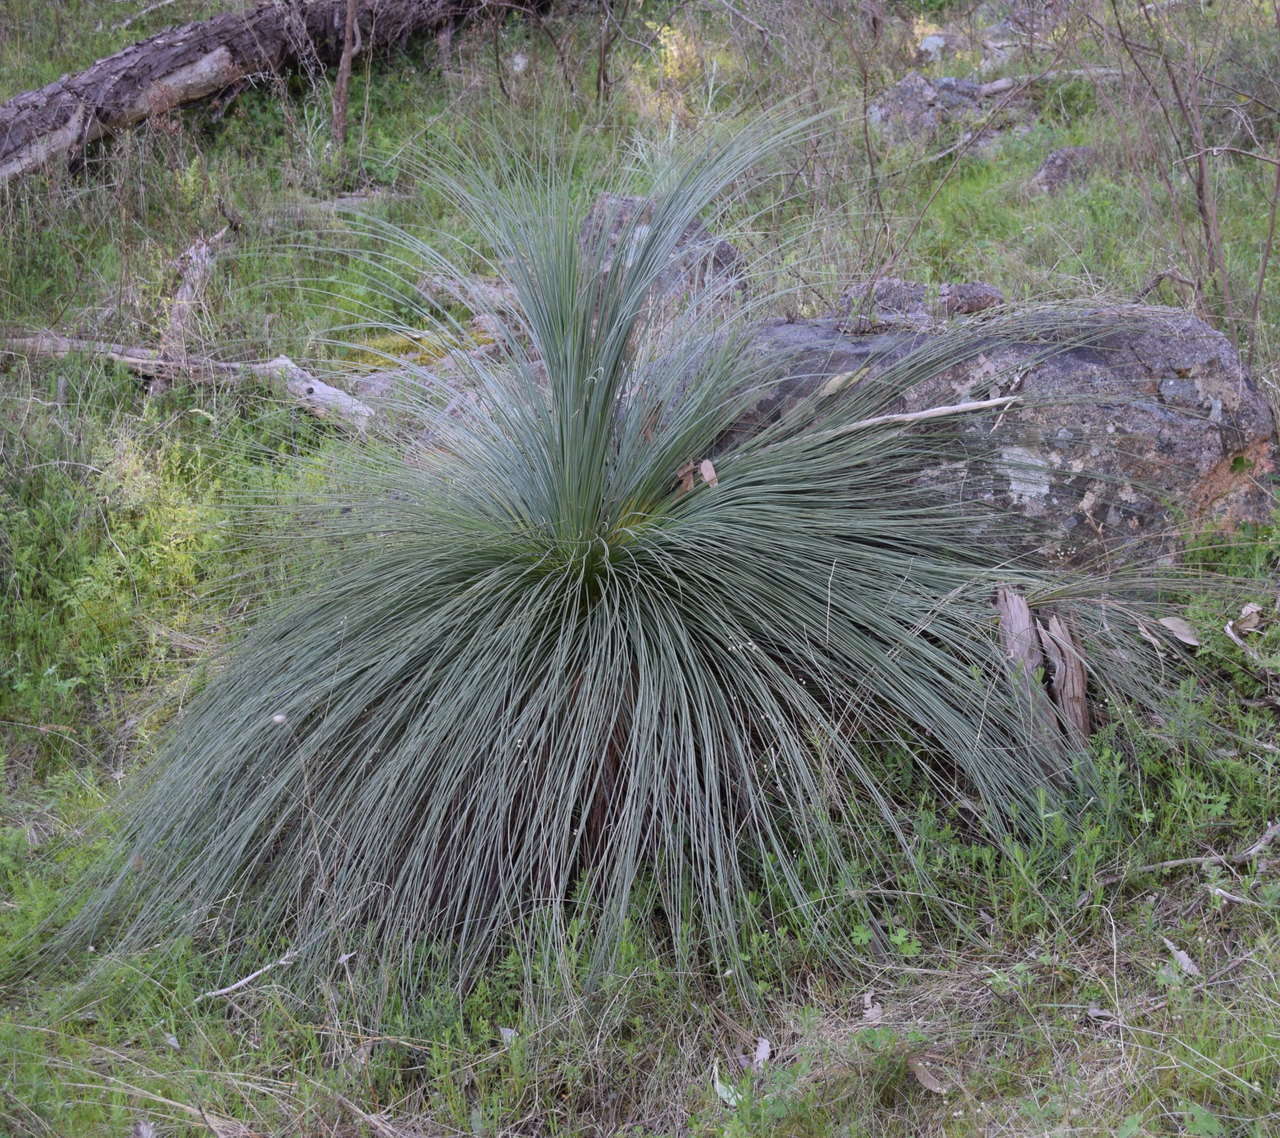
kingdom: Plantae
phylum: Tracheophyta
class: Liliopsida
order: Asparagales
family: Asphodelaceae
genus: Xanthorrhoea
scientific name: Xanthorrhoea glauca
